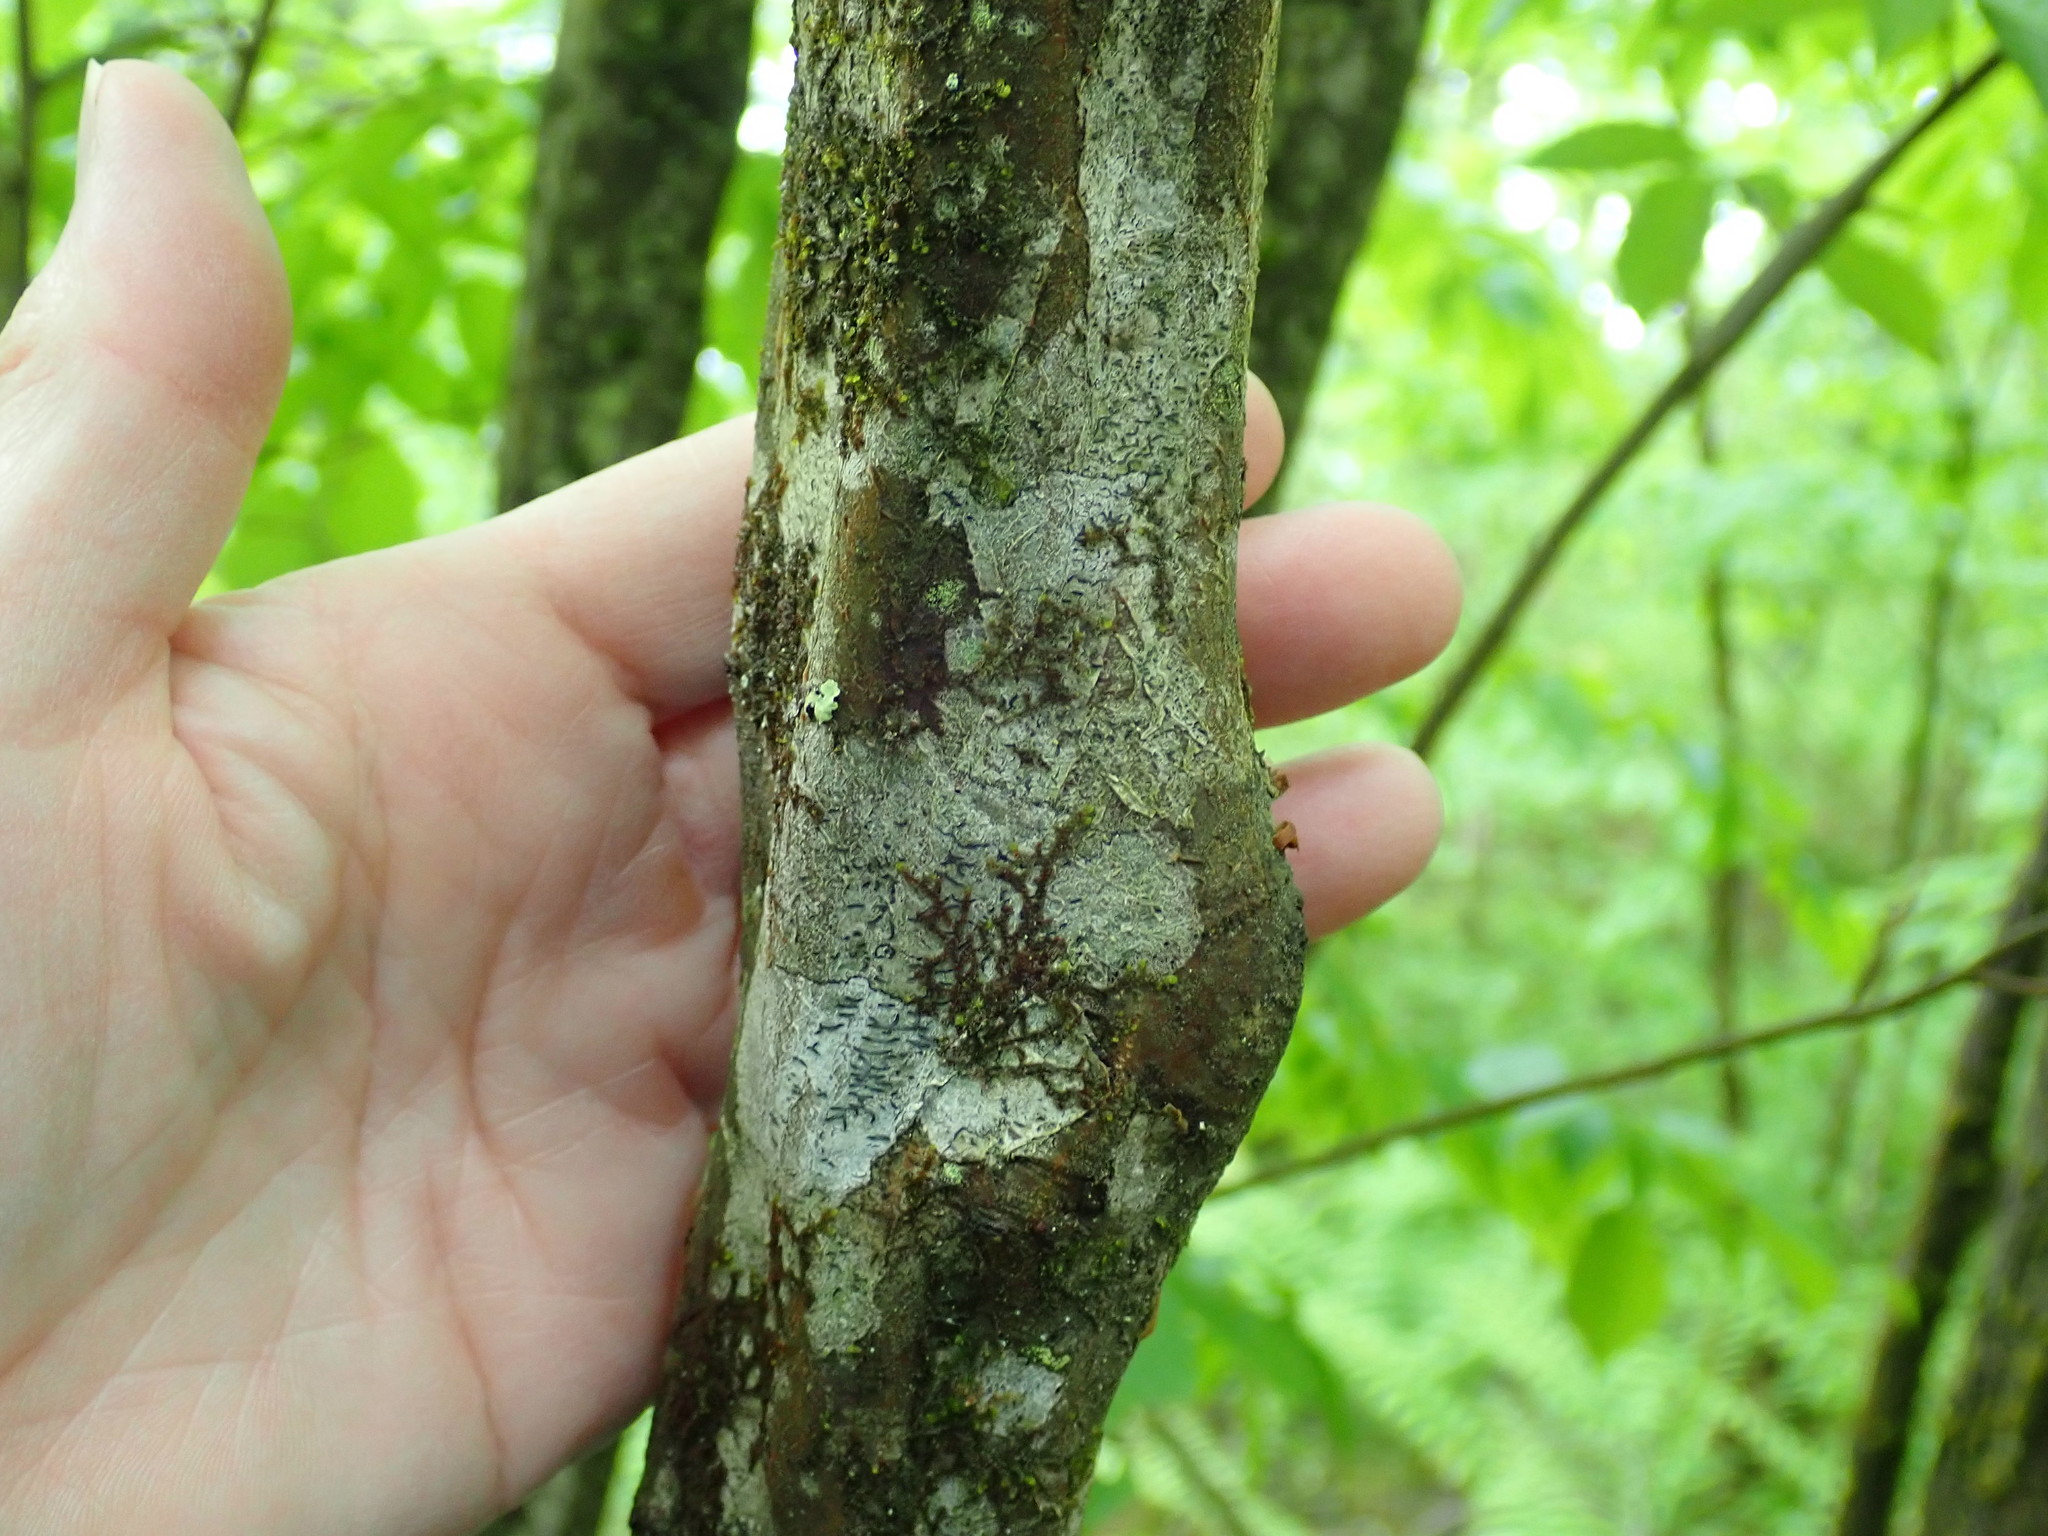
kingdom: Plantae
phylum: Tracheophyta
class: Magnoliopsida
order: Fagales
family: Betulaceae
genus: Carpinus
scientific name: Carpinus caroliniana
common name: American hornbeam
